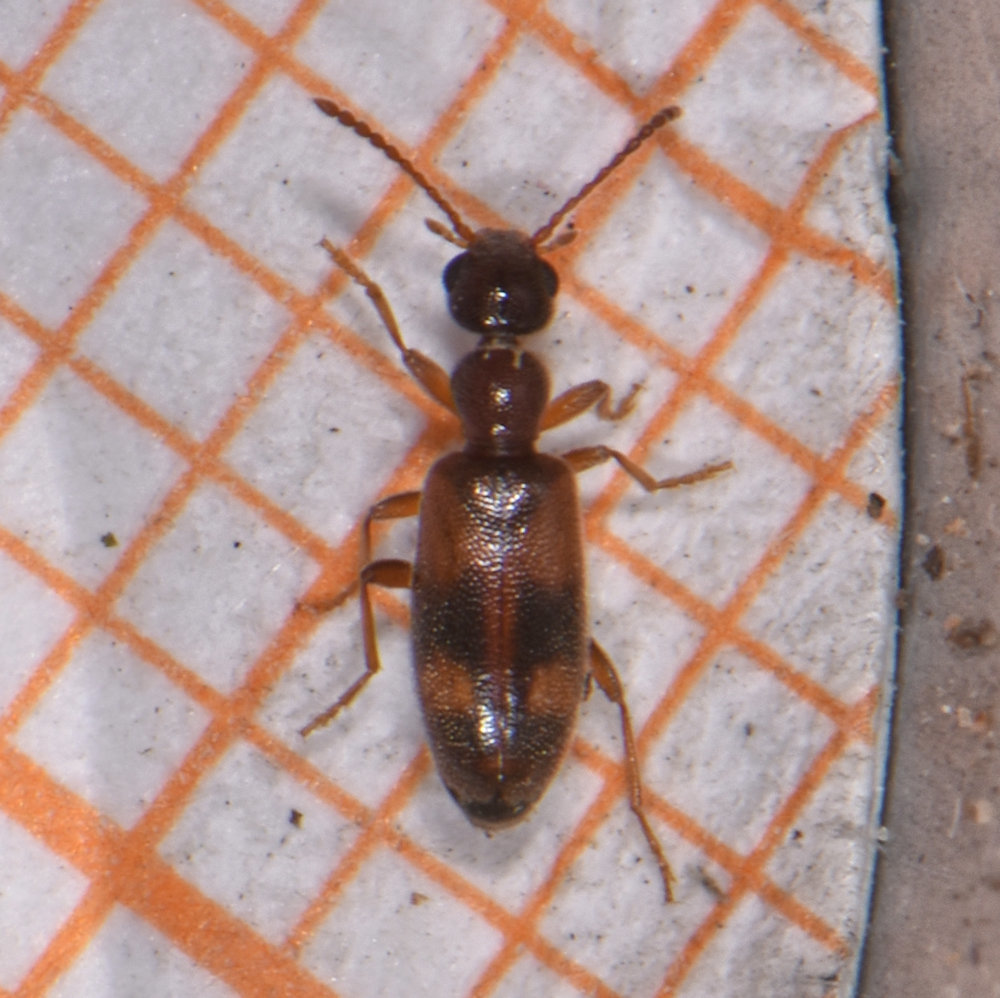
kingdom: Animalia
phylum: Arthropoda
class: Insecta
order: Coleoptera
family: Anthicidae
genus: Anthicus
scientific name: Anthicus cervinus
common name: Cloudy flower beetle
